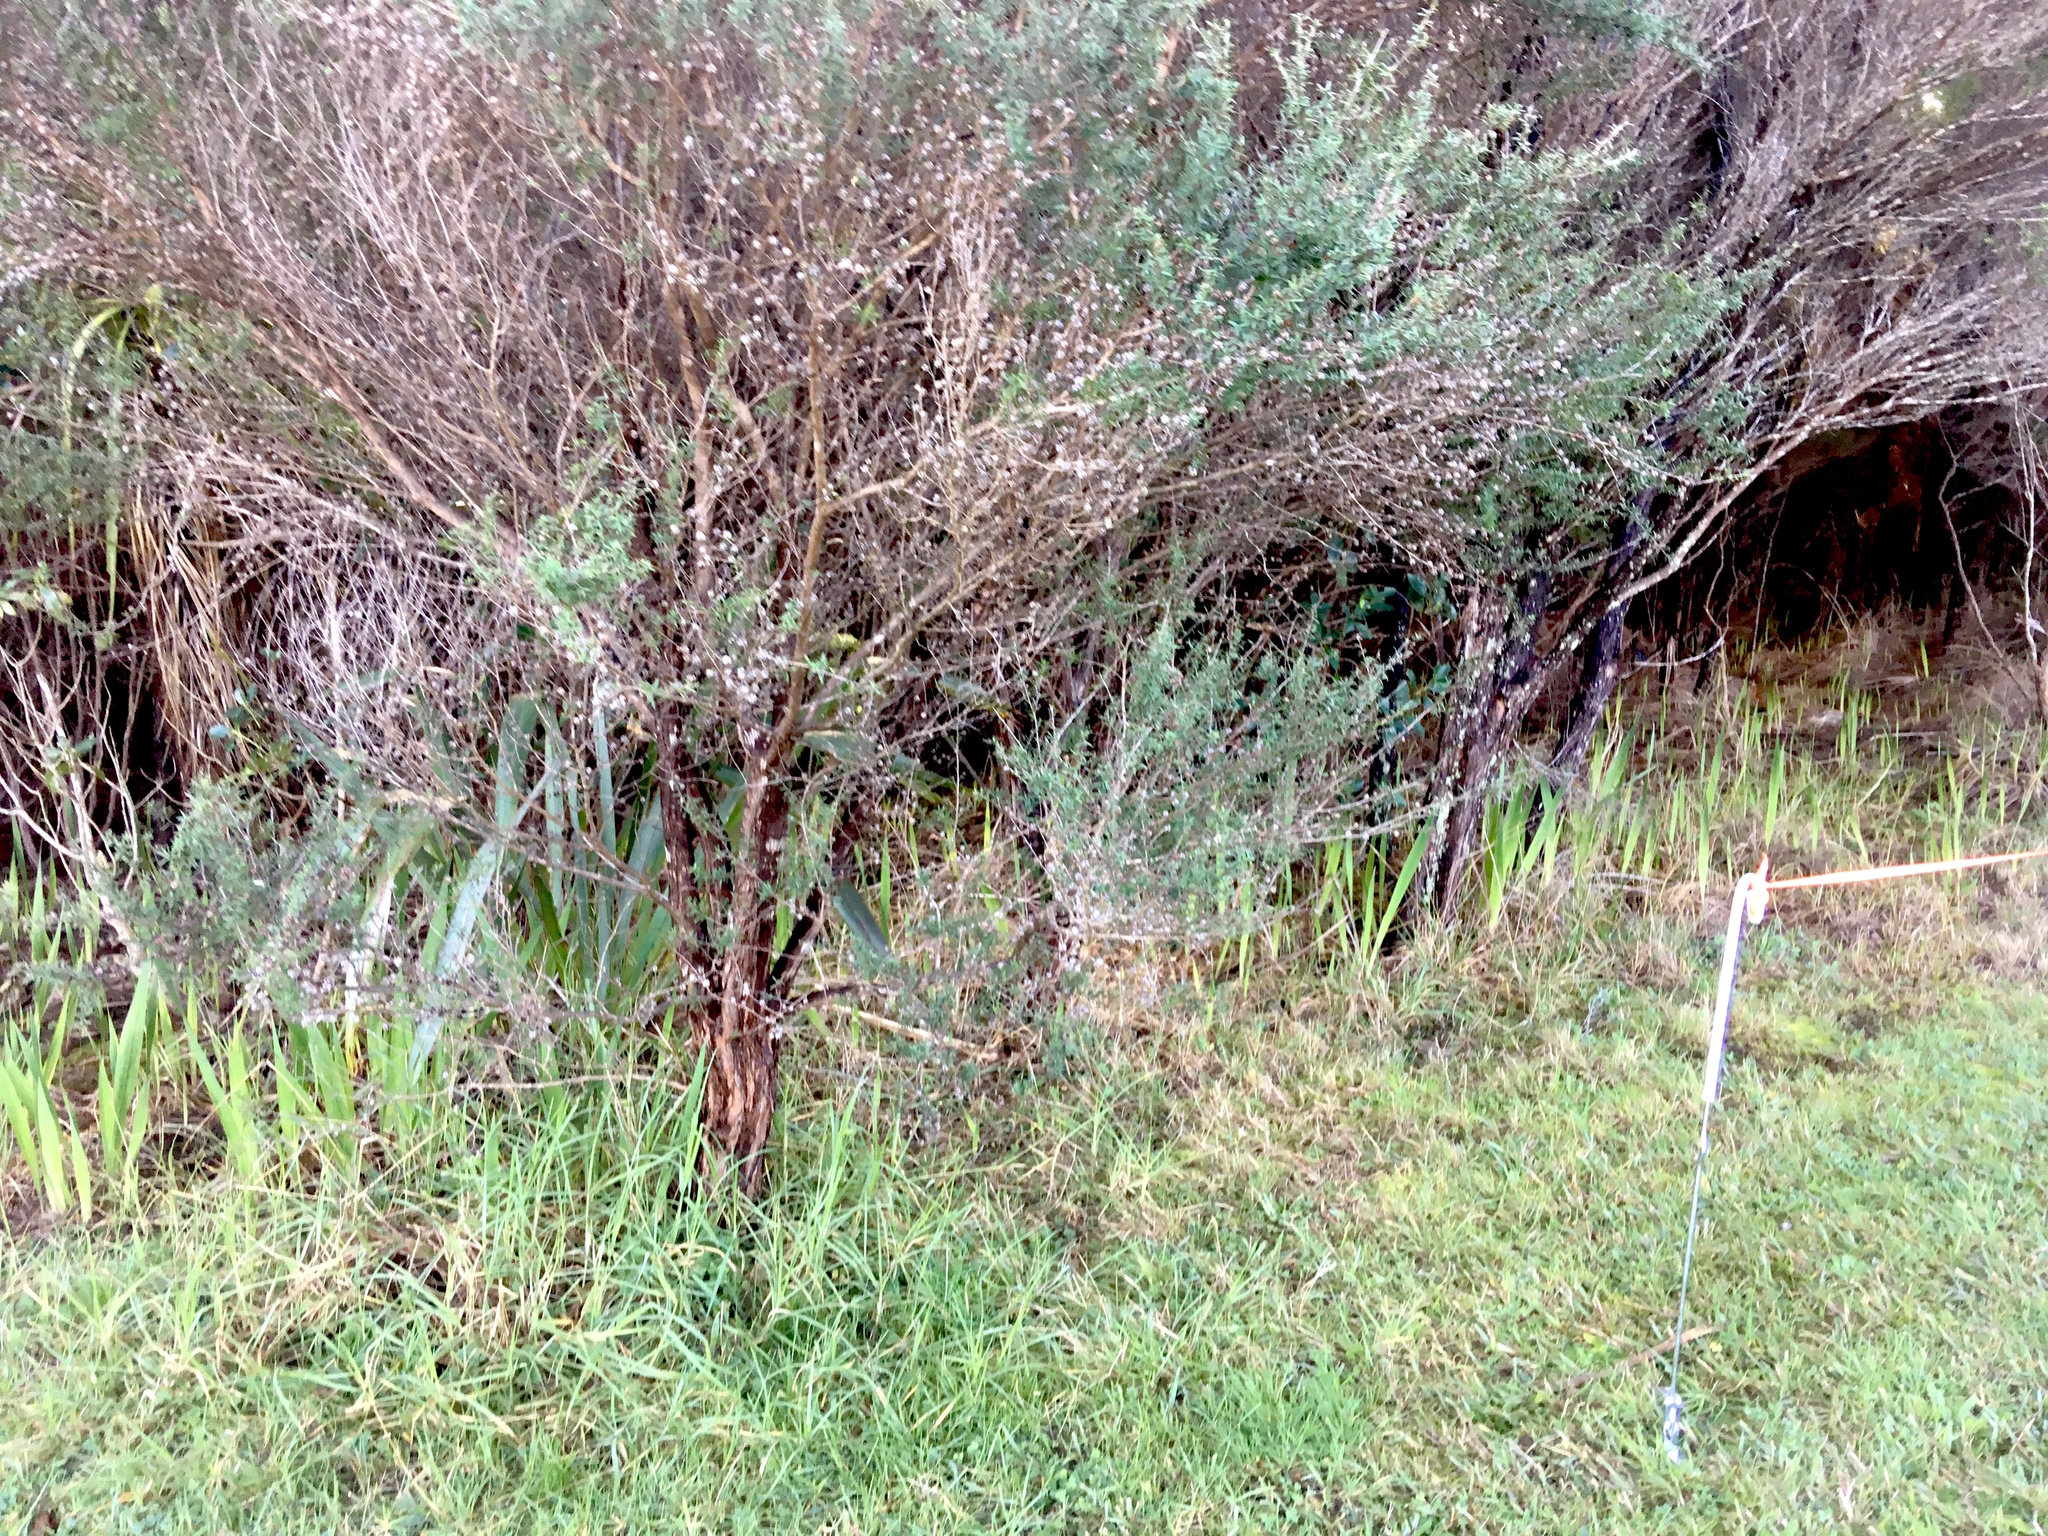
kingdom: Plantae
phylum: Tracheophyta
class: Magnoliopsida
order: Myrtales
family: Myrtaceae
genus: Leptospermum
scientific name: Leptospermum scoparium
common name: Broom tea-tree
